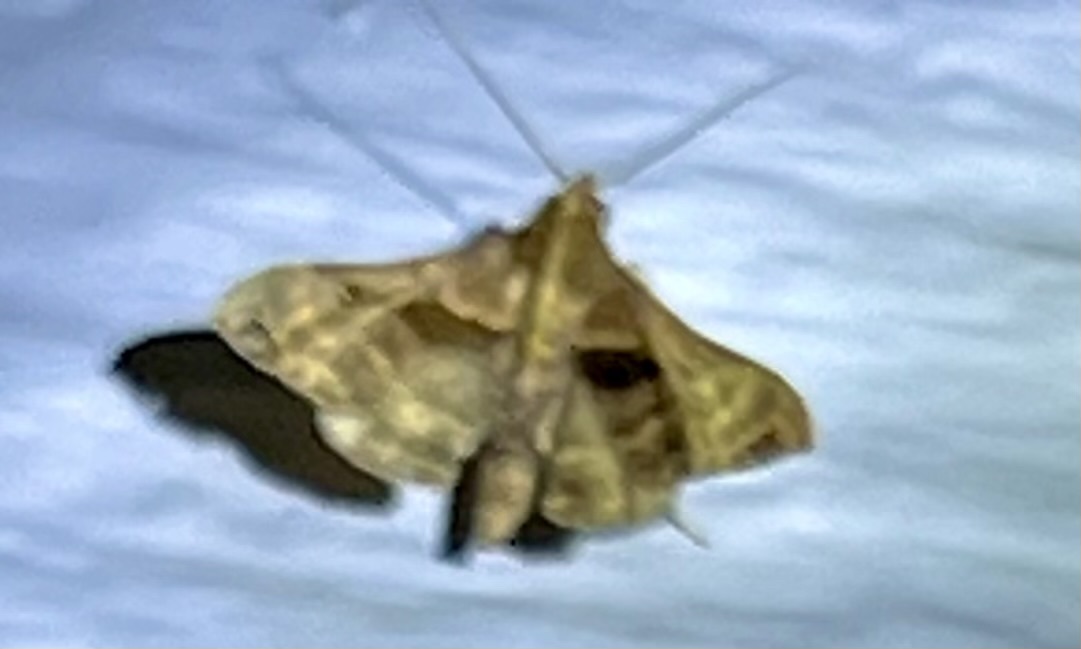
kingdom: Animalia
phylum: Arthropoda
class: Insecta
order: Lepidoptera
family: Erebidae
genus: Palthis
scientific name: Palthis asopialis
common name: Faint-spotted palthis moth
